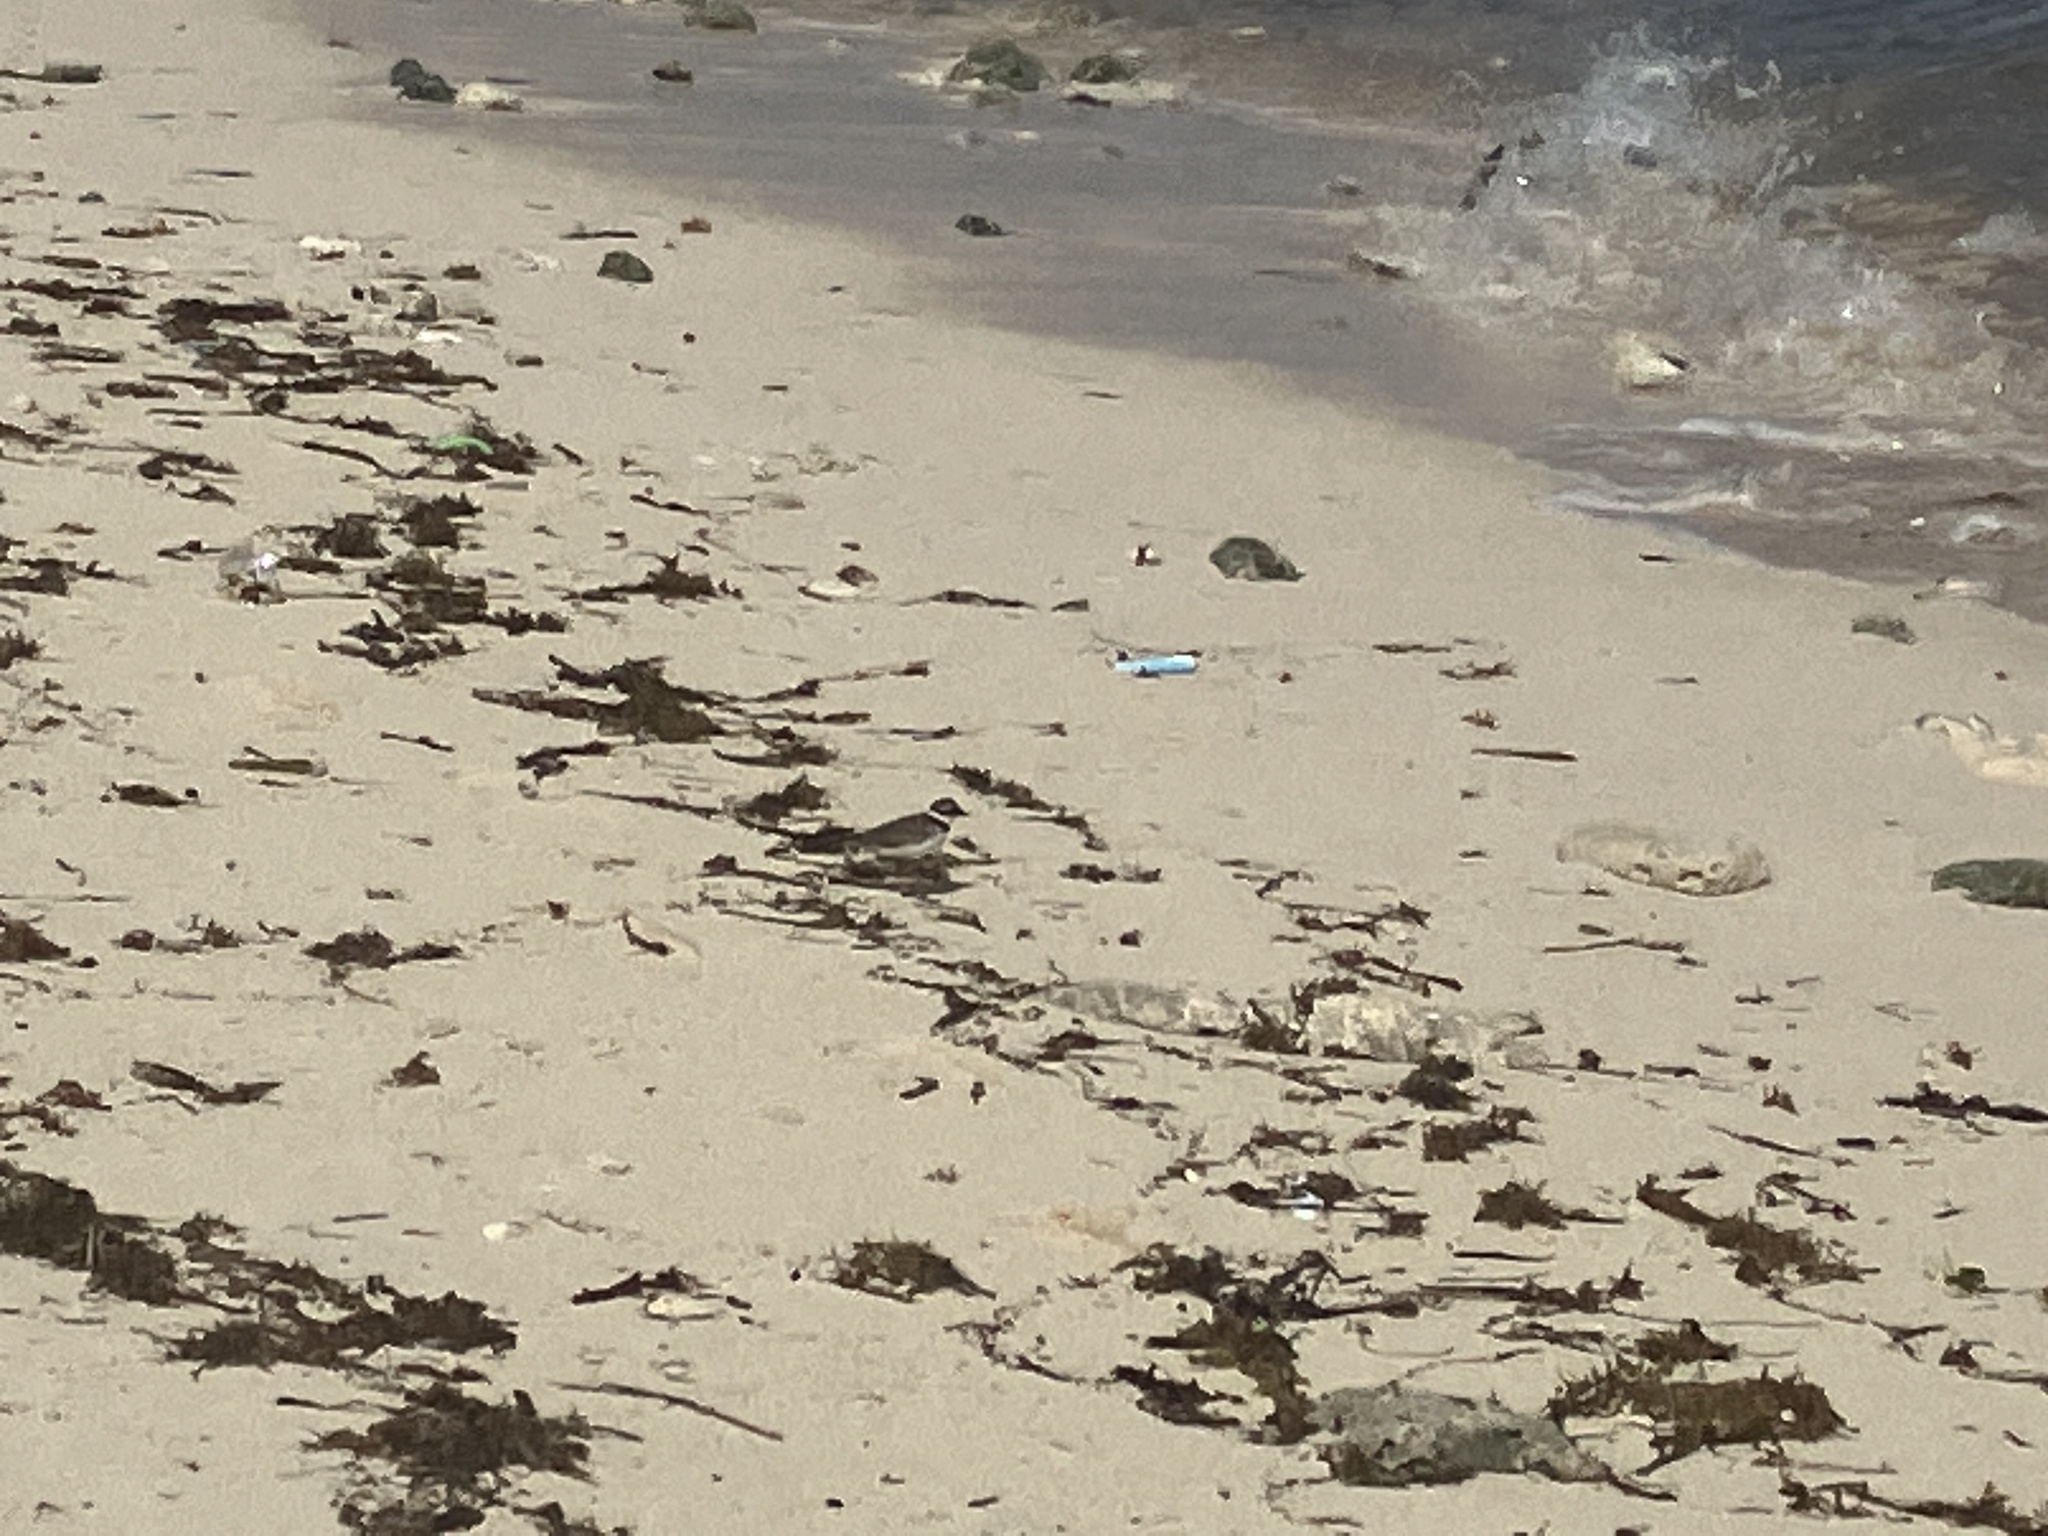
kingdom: Animalia
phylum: Chordata
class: Aves
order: Charadriiformes
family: Charadriidae
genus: Charadrius
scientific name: Charadrius semipalmatus
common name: Semipalmated plover
